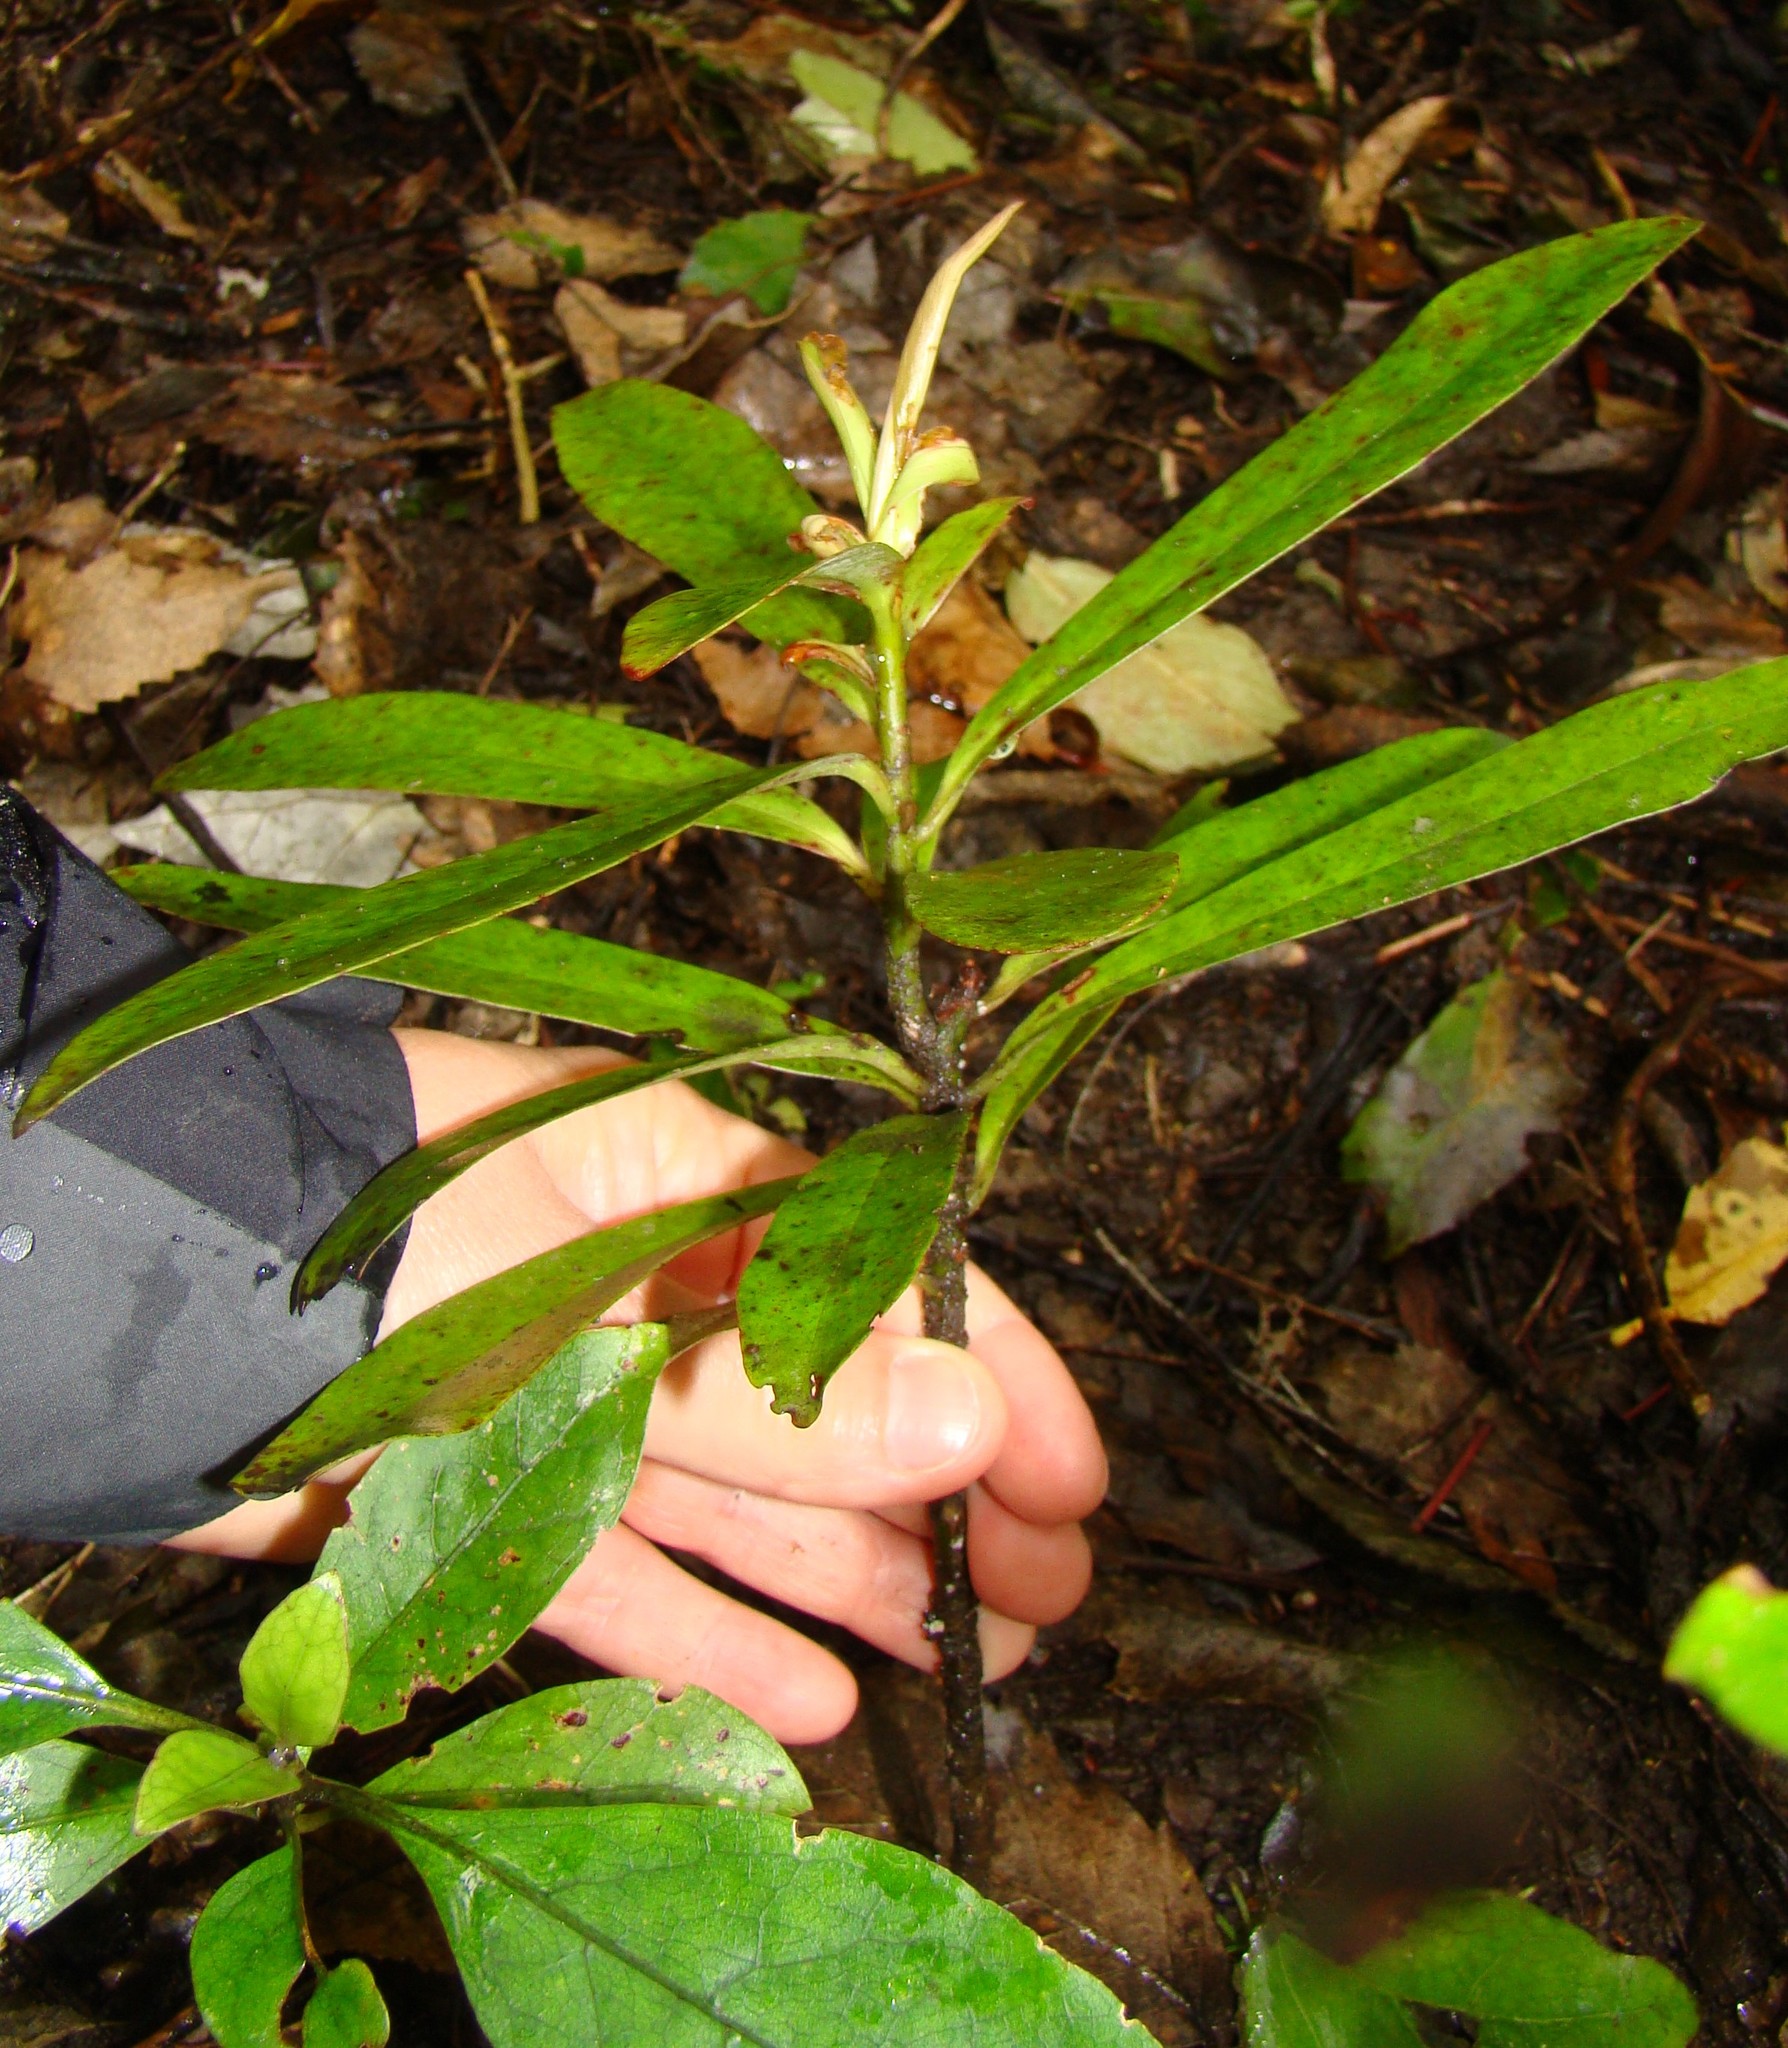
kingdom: Plantae
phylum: Tracheophyta
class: Magnoliopsida
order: Ericales
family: Primulaceae
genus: Myrsine
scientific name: Myrsine salicina
